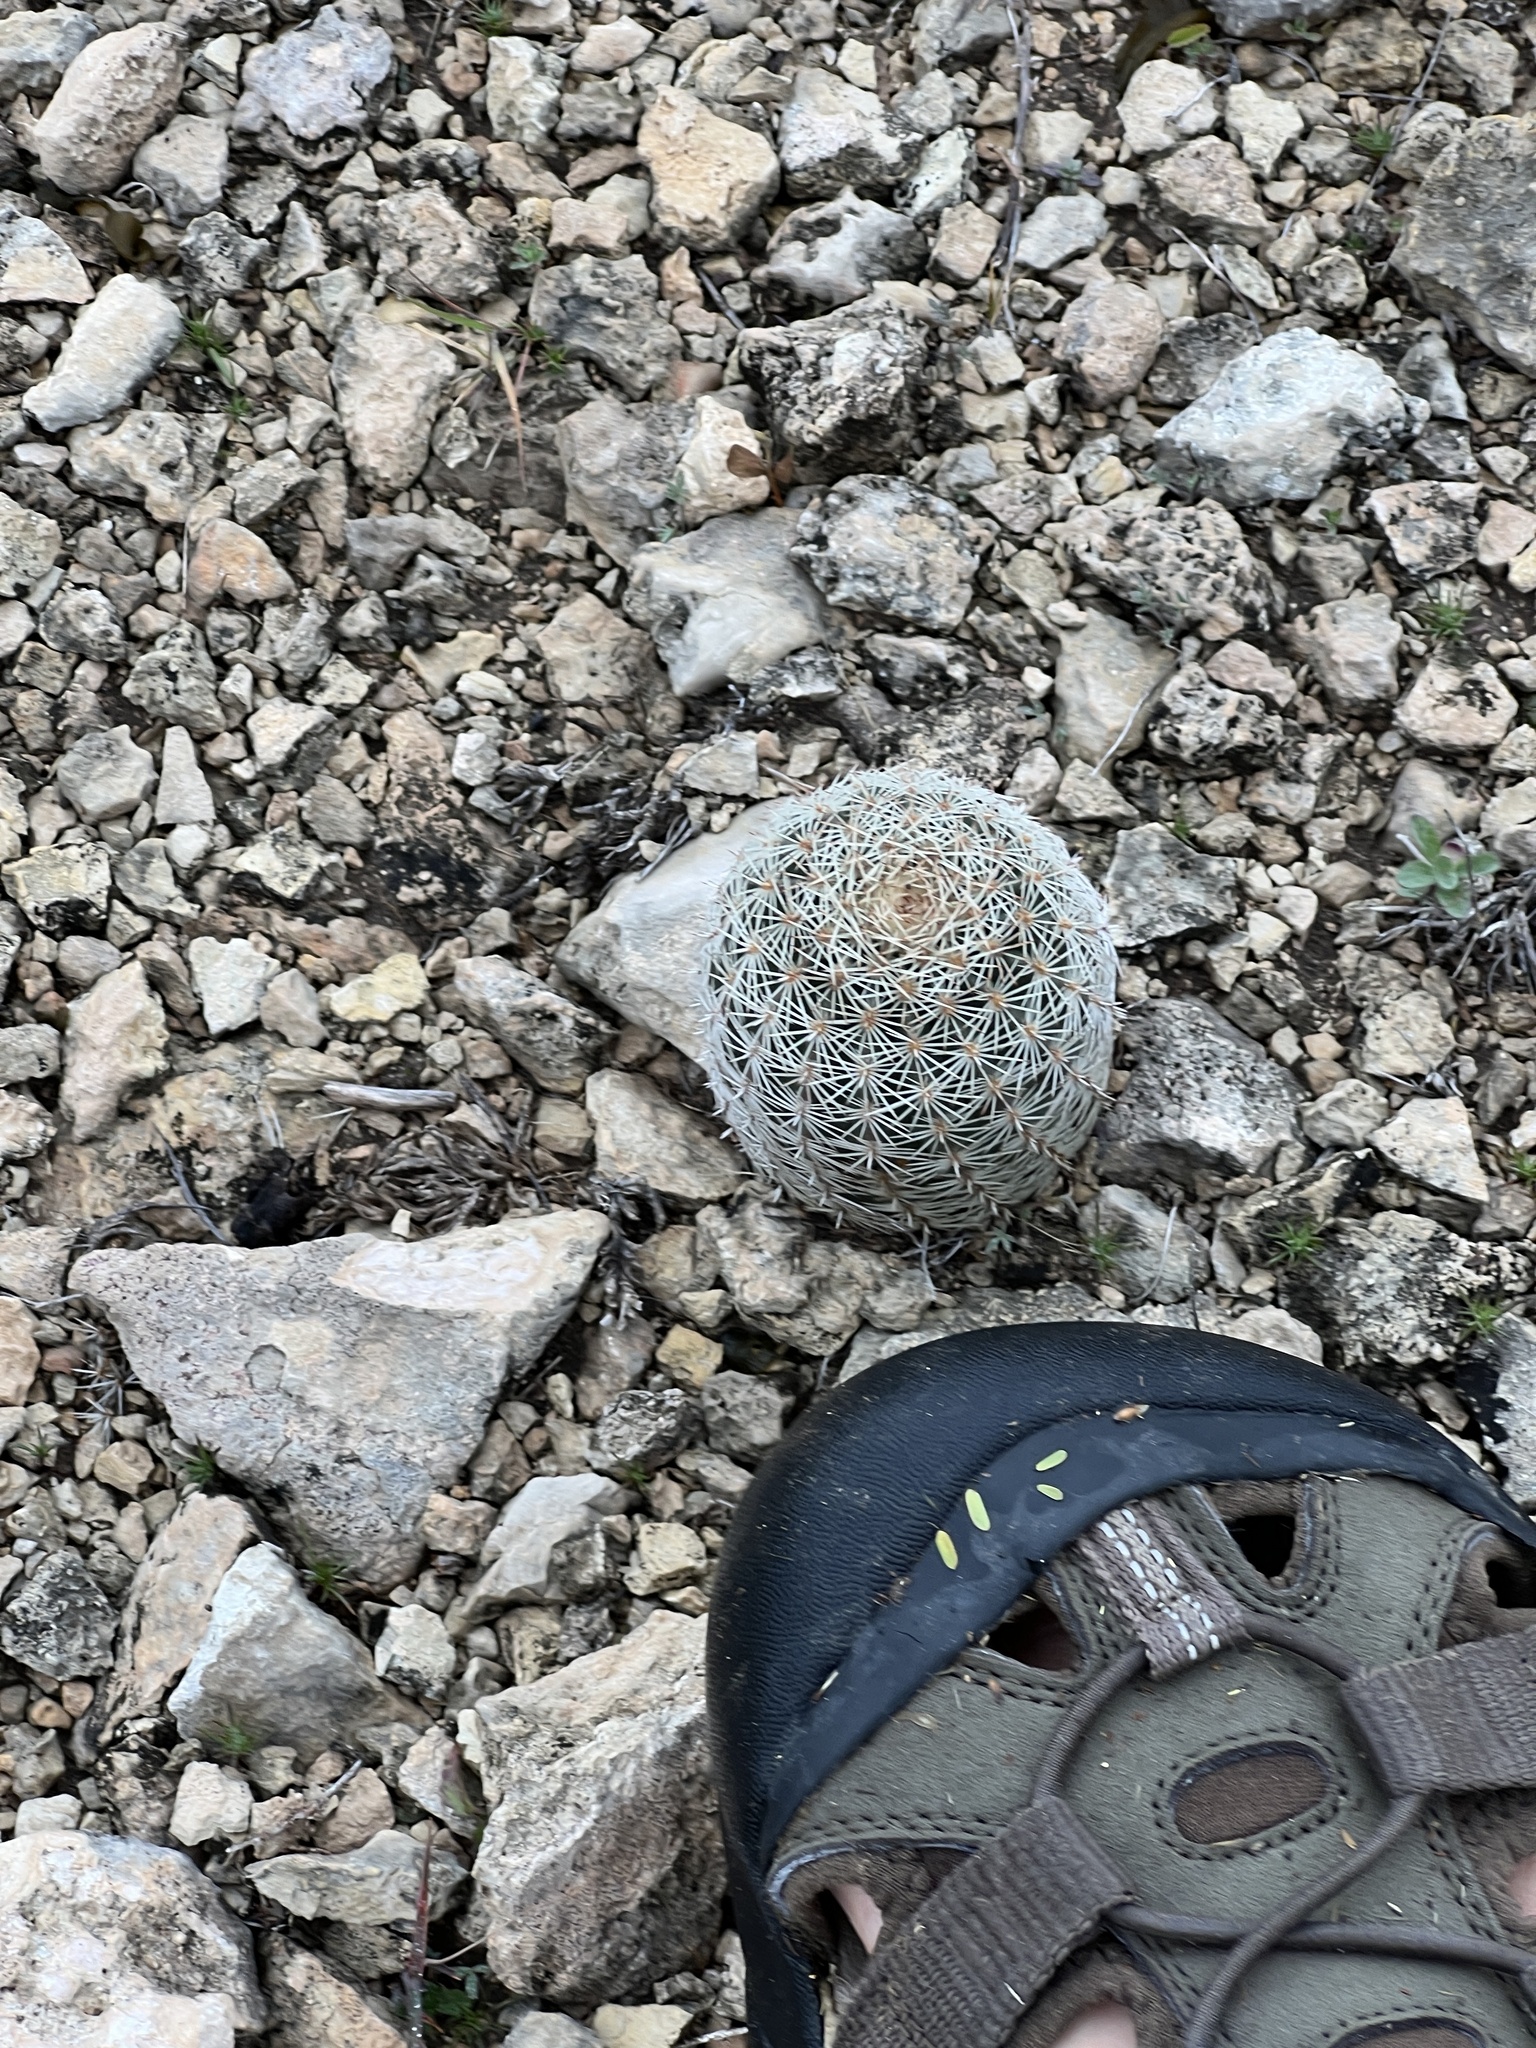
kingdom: Plantae
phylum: Tracheophyta
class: Magnoliopsida
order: Caryophyllales
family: Cactaceae
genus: Echinocereus
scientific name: Echinocereus pectinatus
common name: Rainbow cactus
